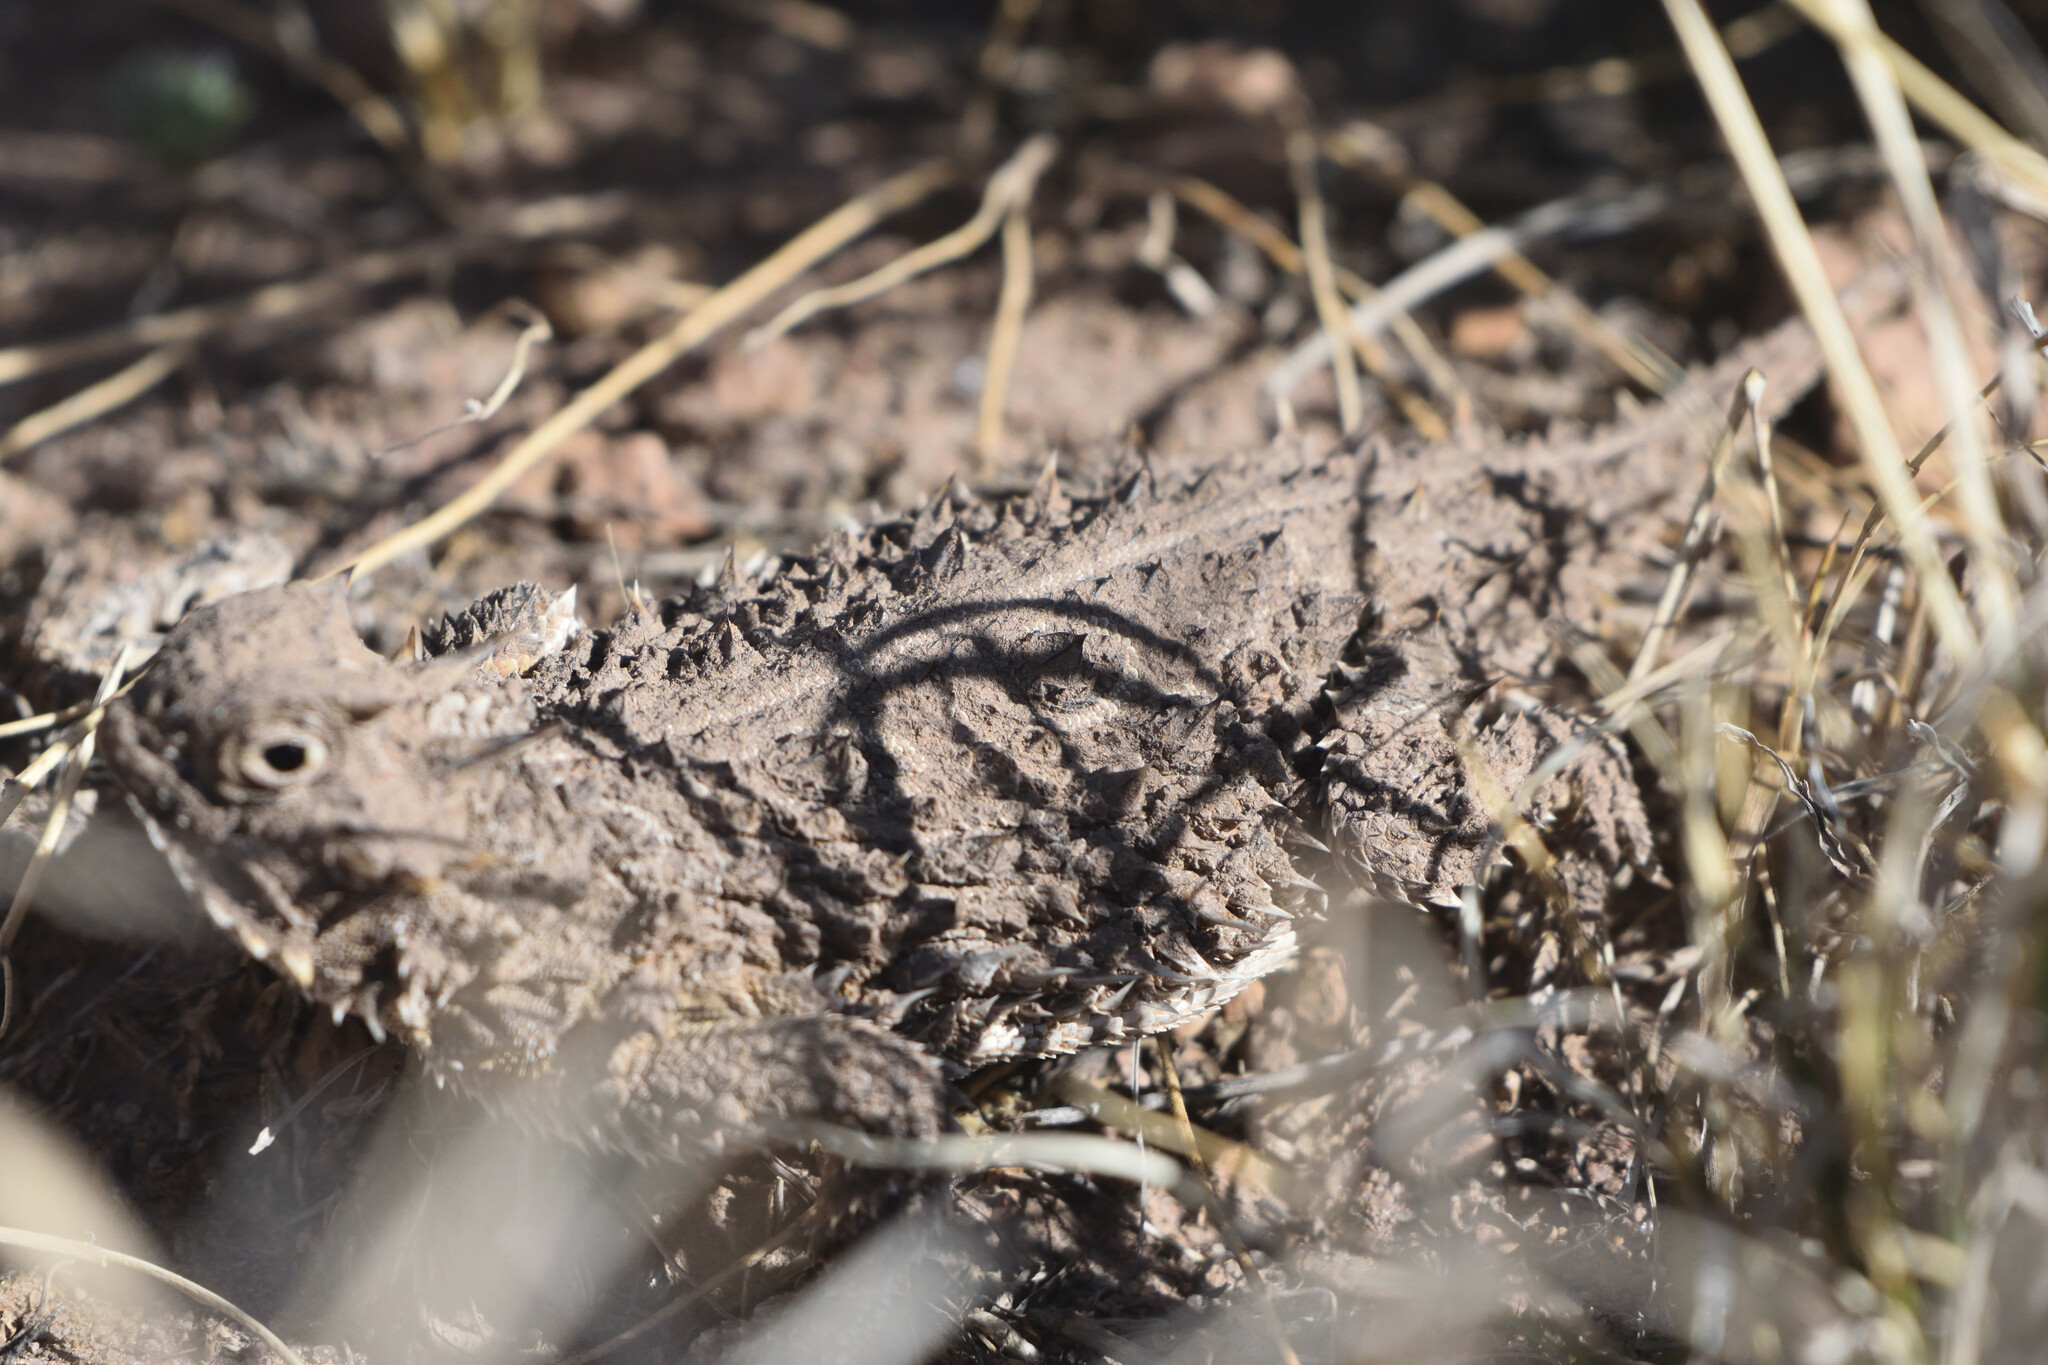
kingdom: Animalia
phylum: Chordata
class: Squamata
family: Phrynosomatidae
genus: Phrynosoma
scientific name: Phrynosoma cornutum
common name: Texas horned lizard
